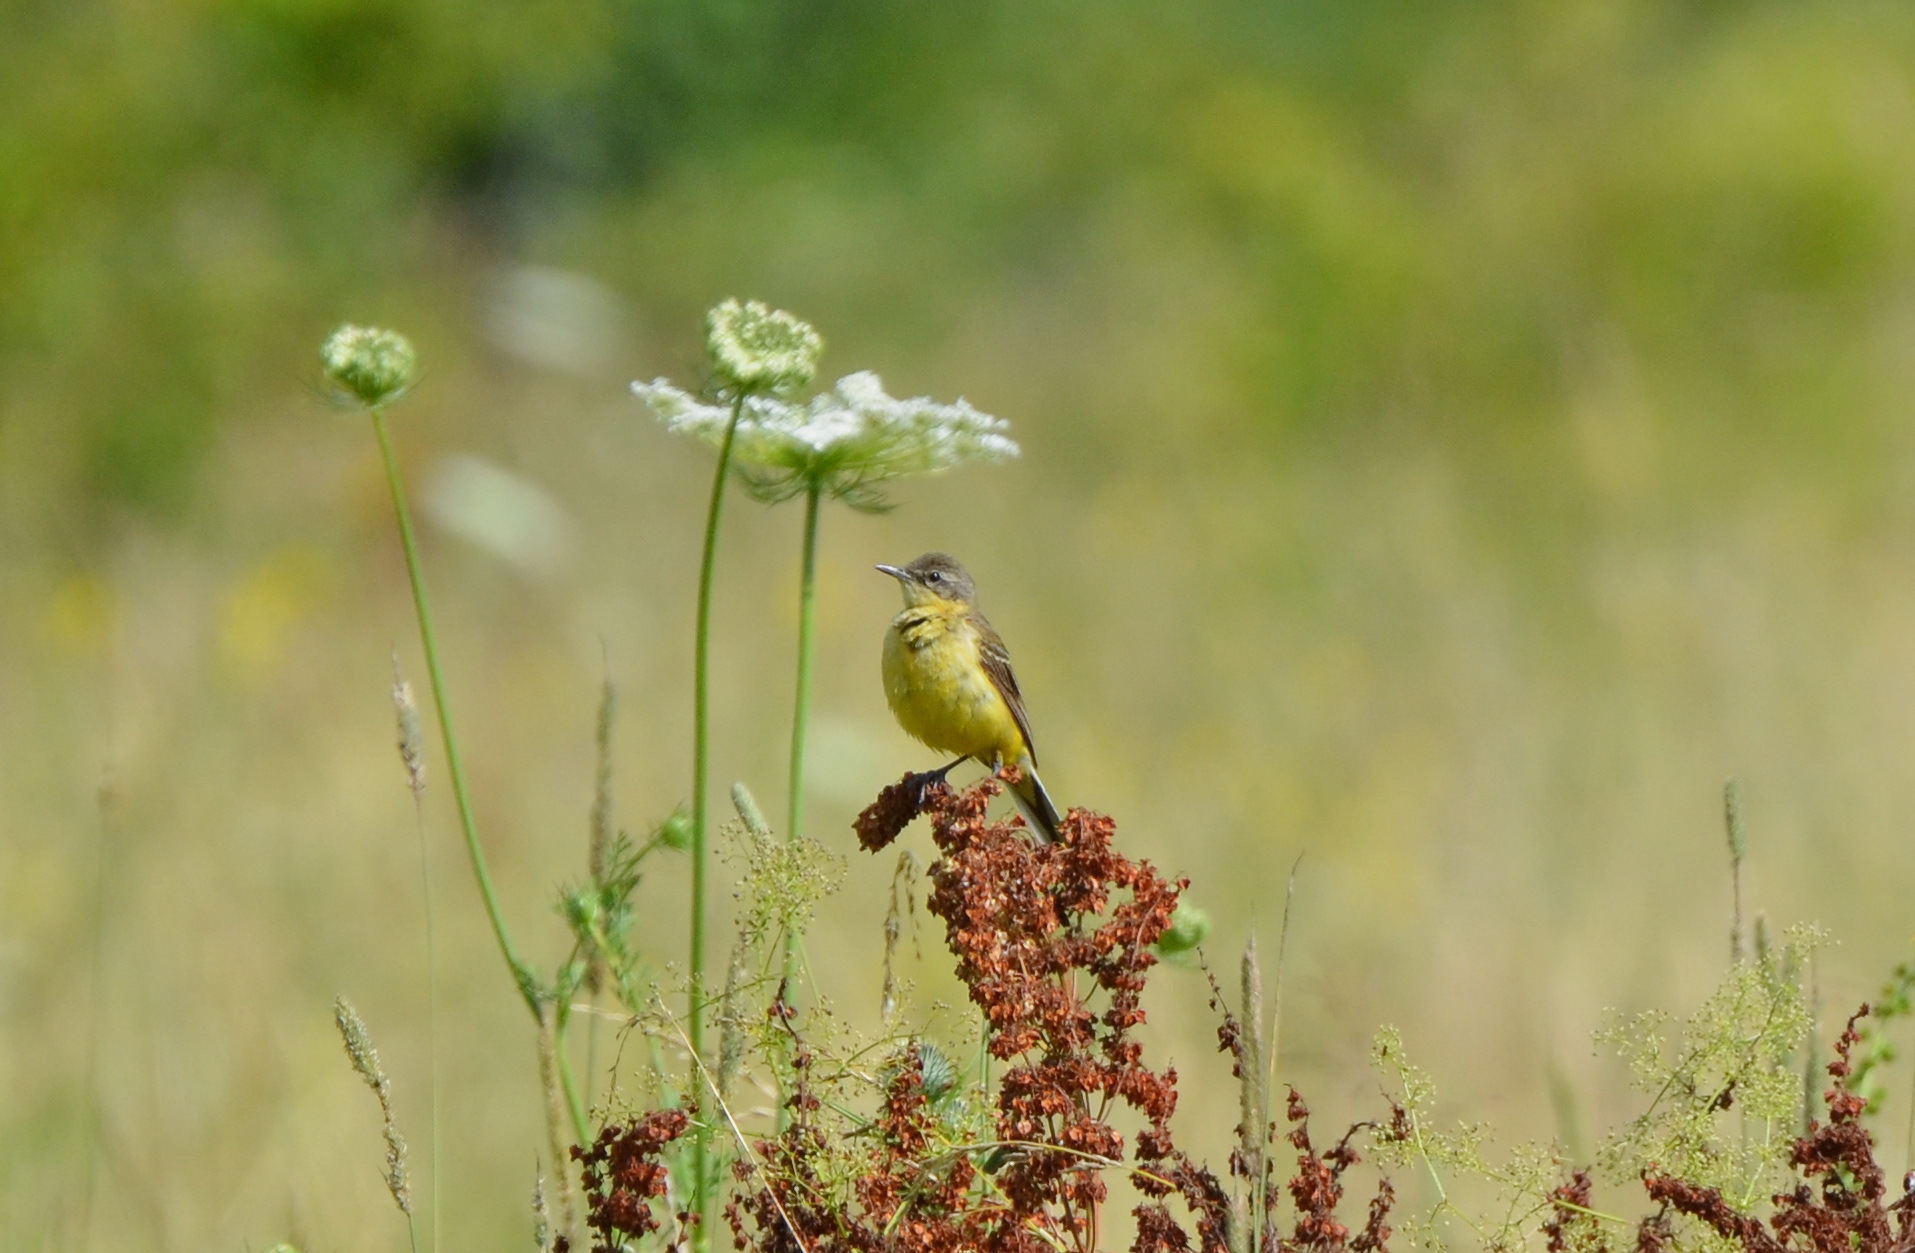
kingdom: Animalia
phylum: Chordata
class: Aves
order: Passeriformes
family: Motacillidae
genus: Motacilla
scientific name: Motacilla flava
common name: Western yellow wagtail
